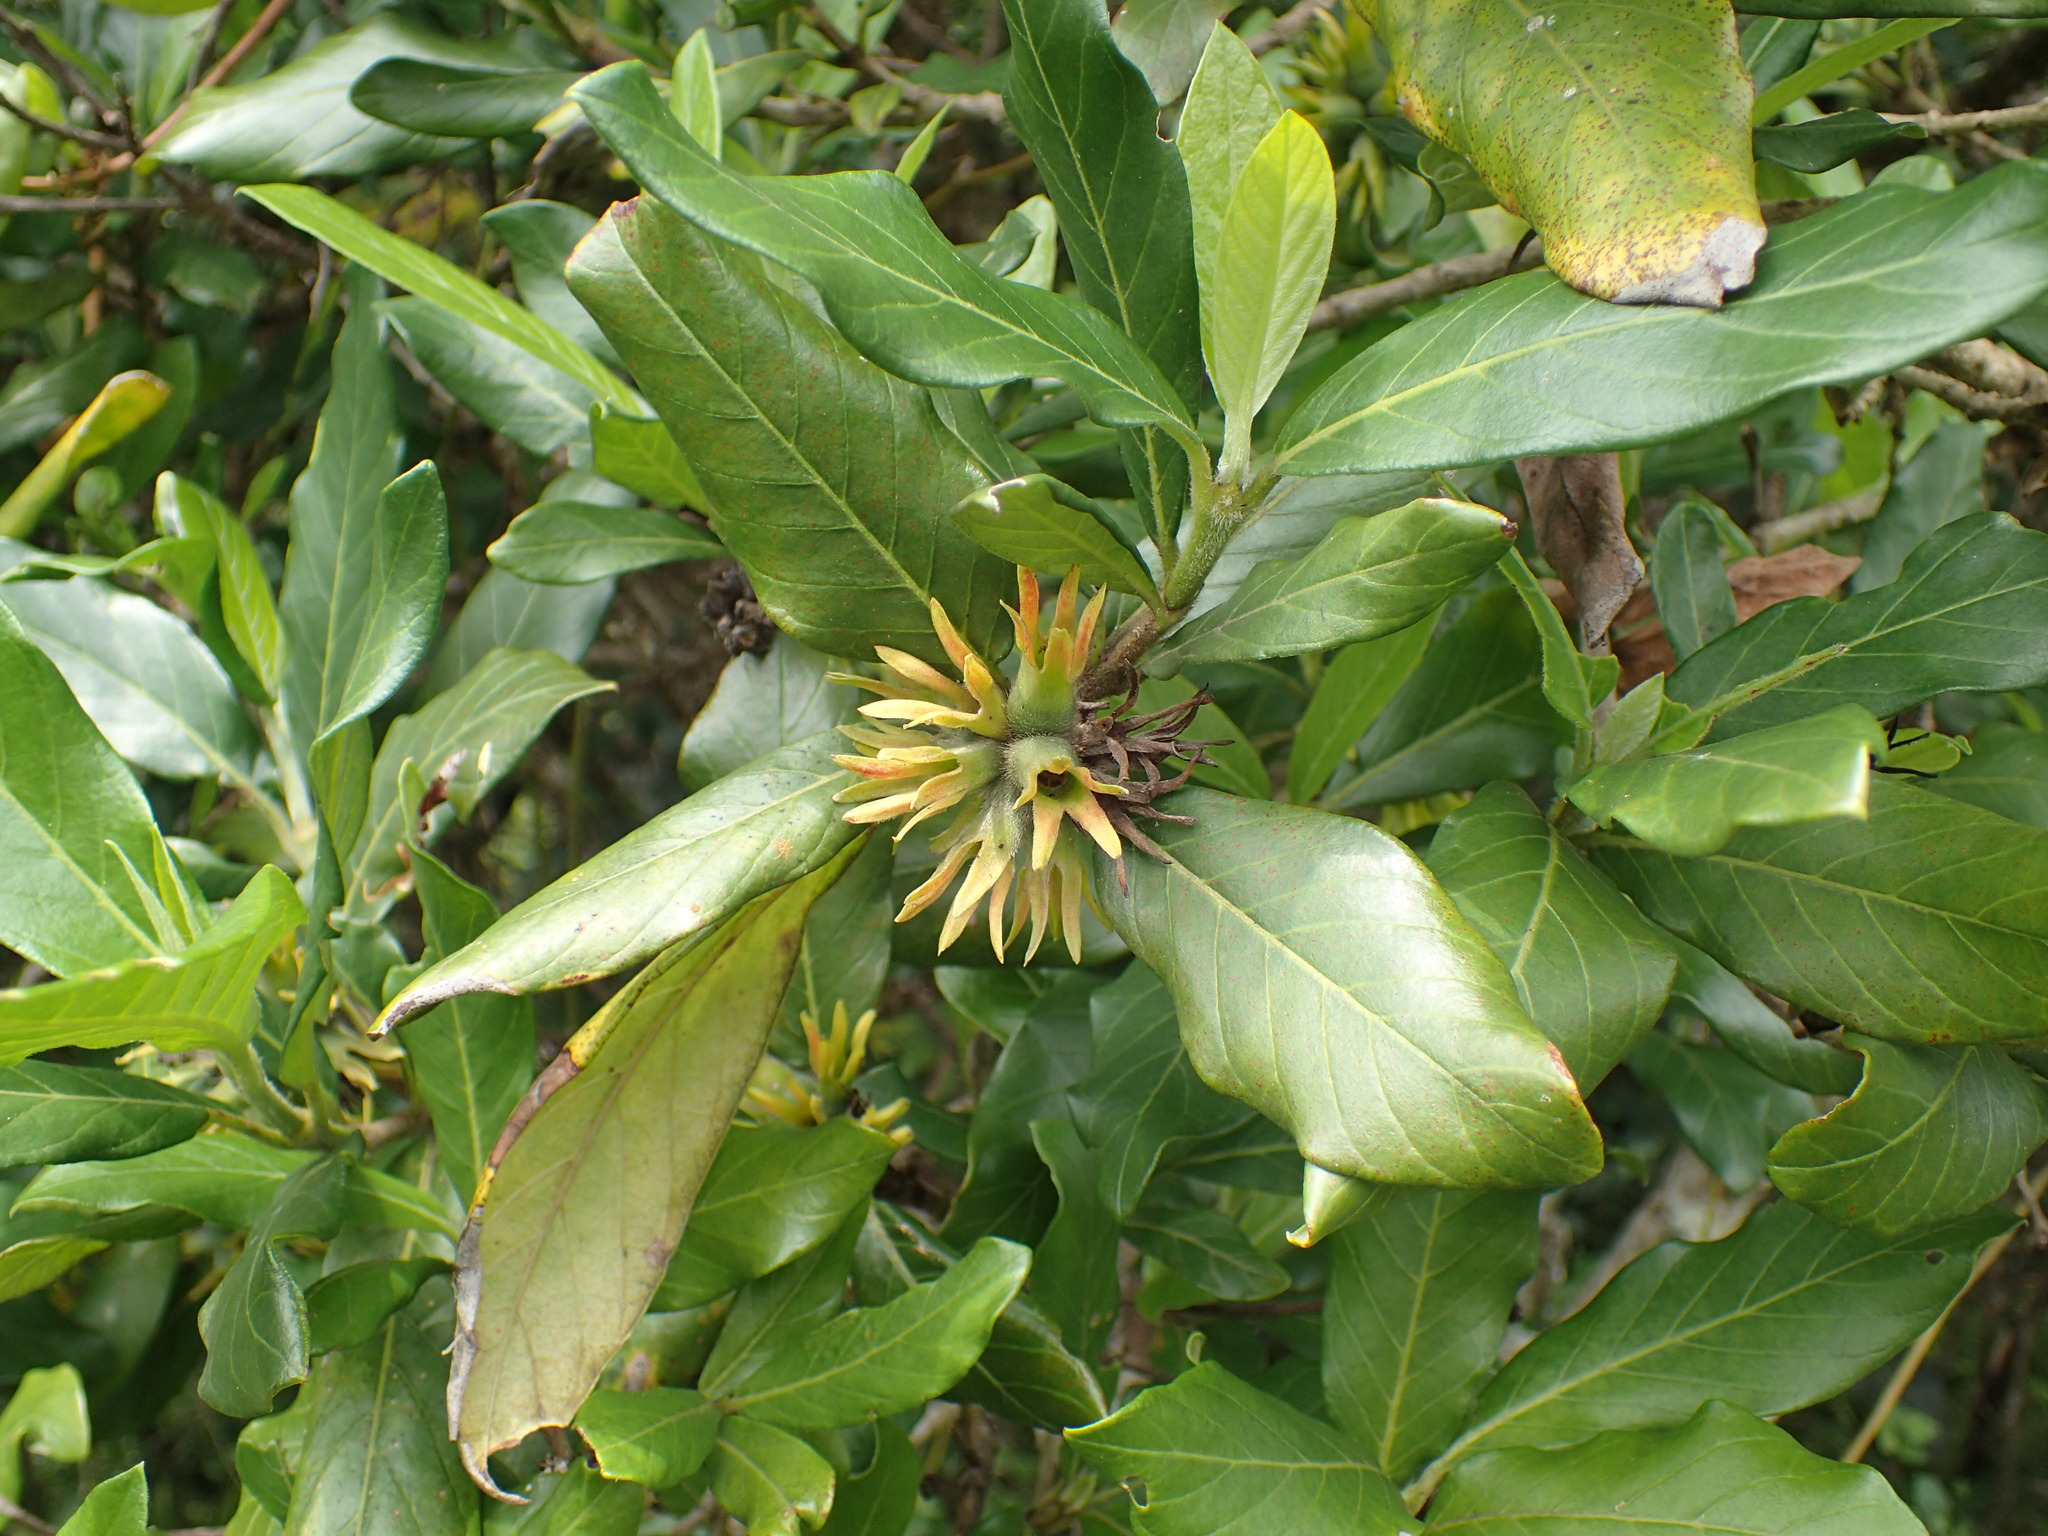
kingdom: Plantae
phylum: Tracheophyta
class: Magnoliopsida
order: Gentianales
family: Rubiaceae
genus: Burchellia
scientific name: Burchellia bubalina
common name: Wild pomegranate
